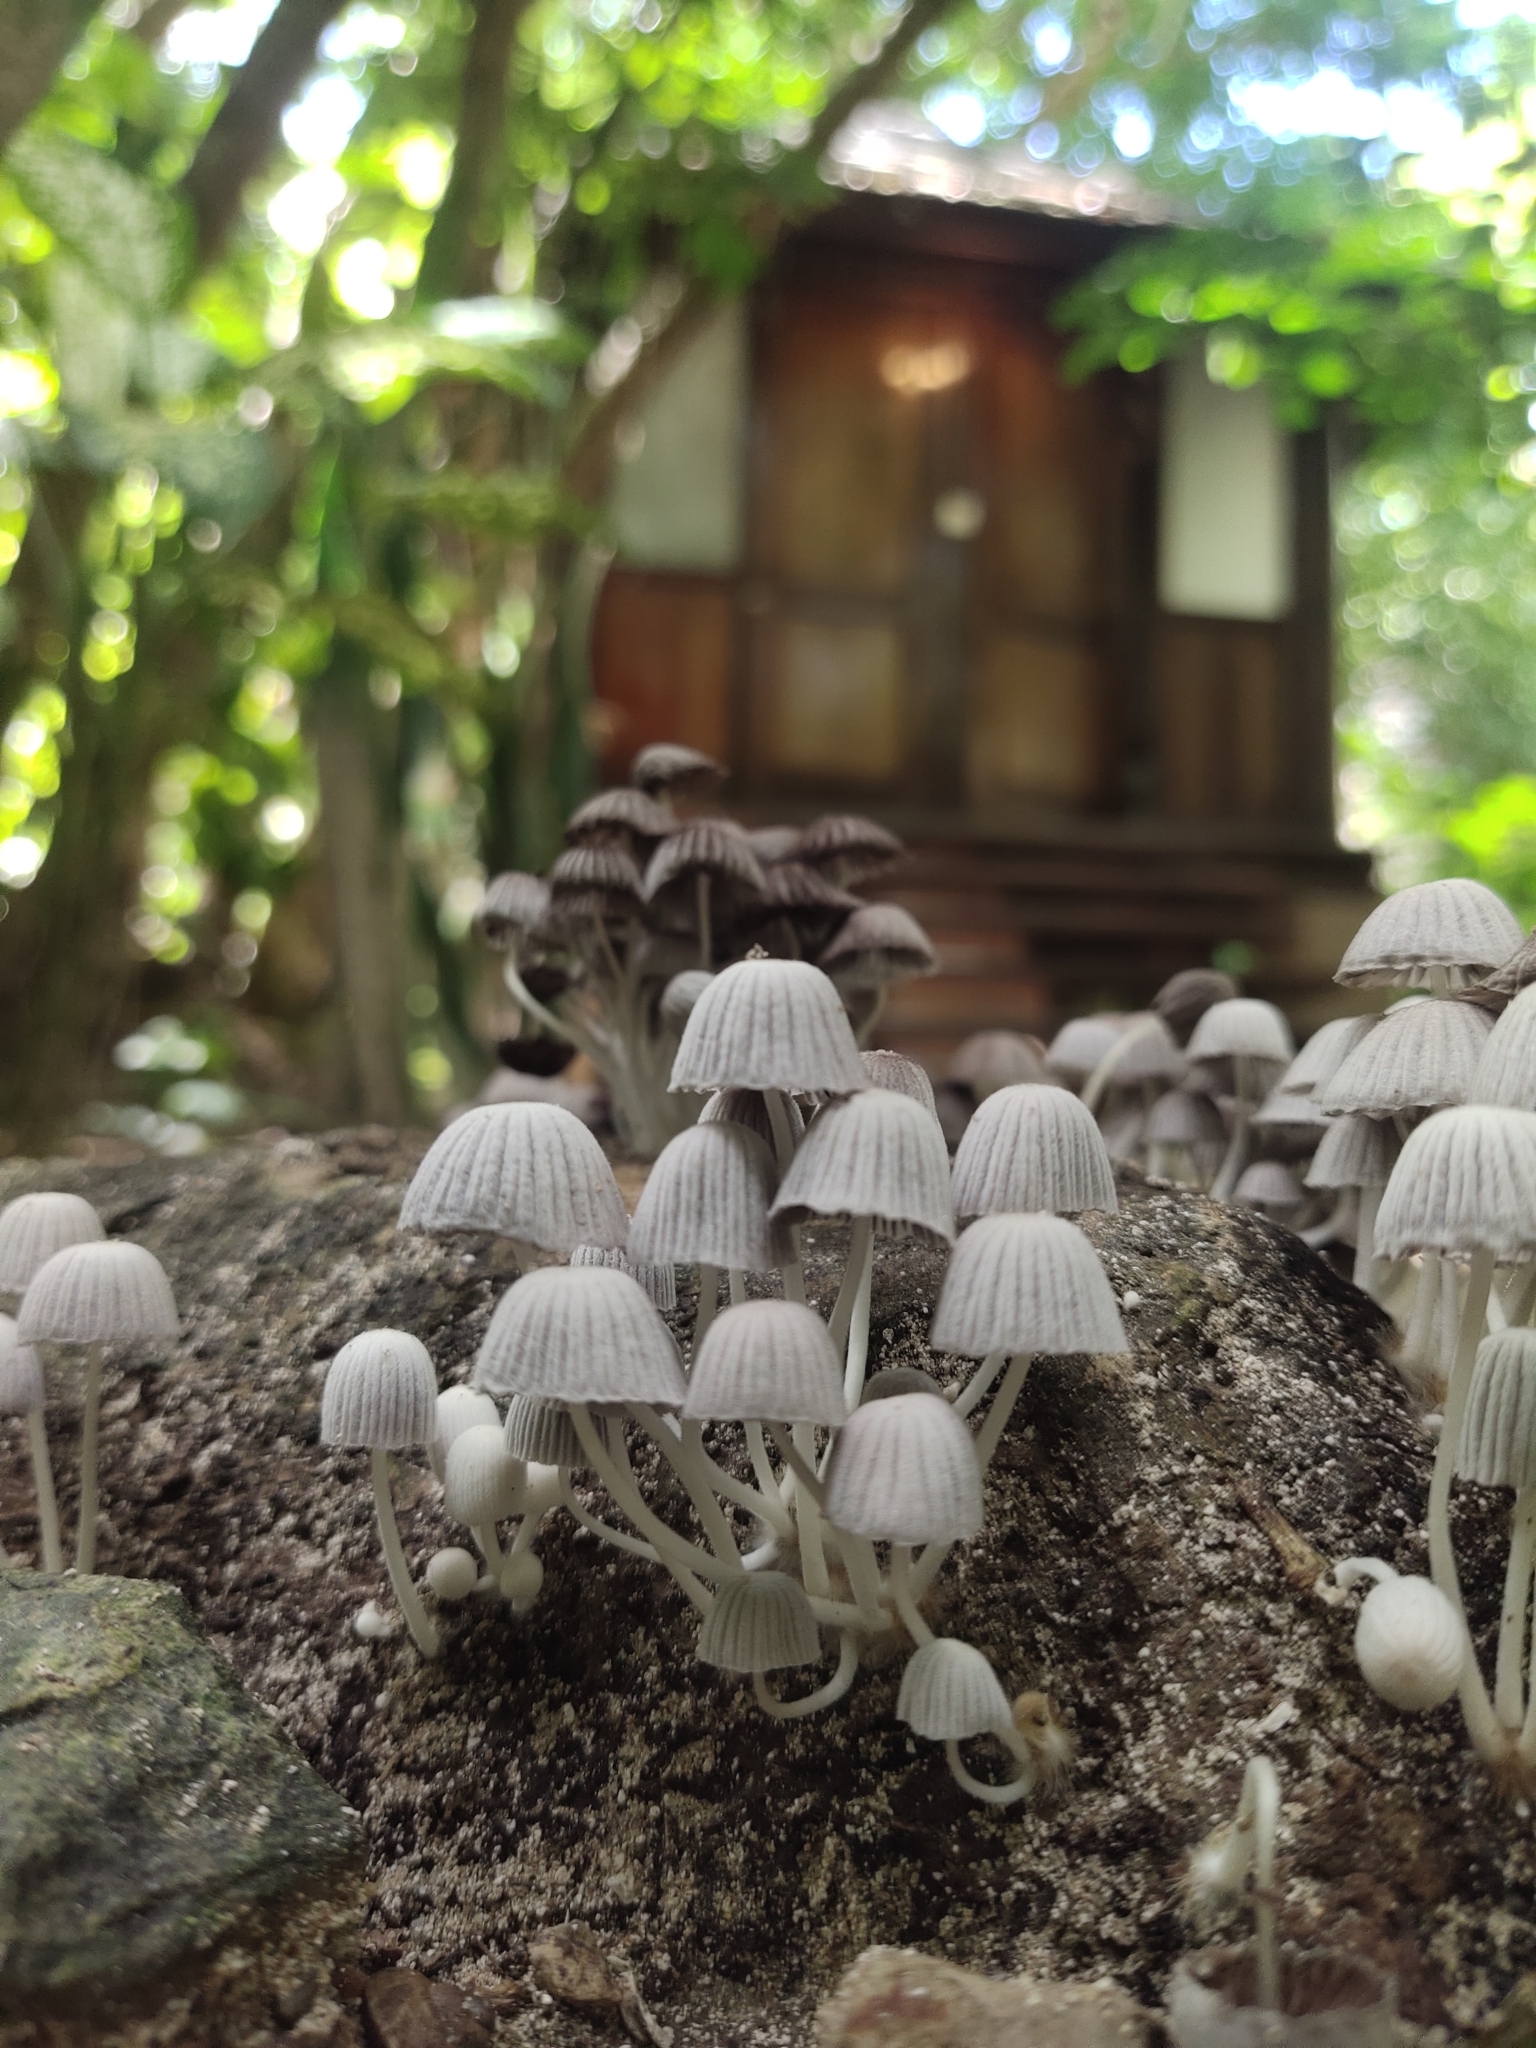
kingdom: Fungi
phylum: Basidiomycota
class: Agaricomycetes
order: Agaricales
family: Psathyrellaceae
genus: Coprinellus
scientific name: Coprinellus disseminatus
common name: Fairies' bonnets
